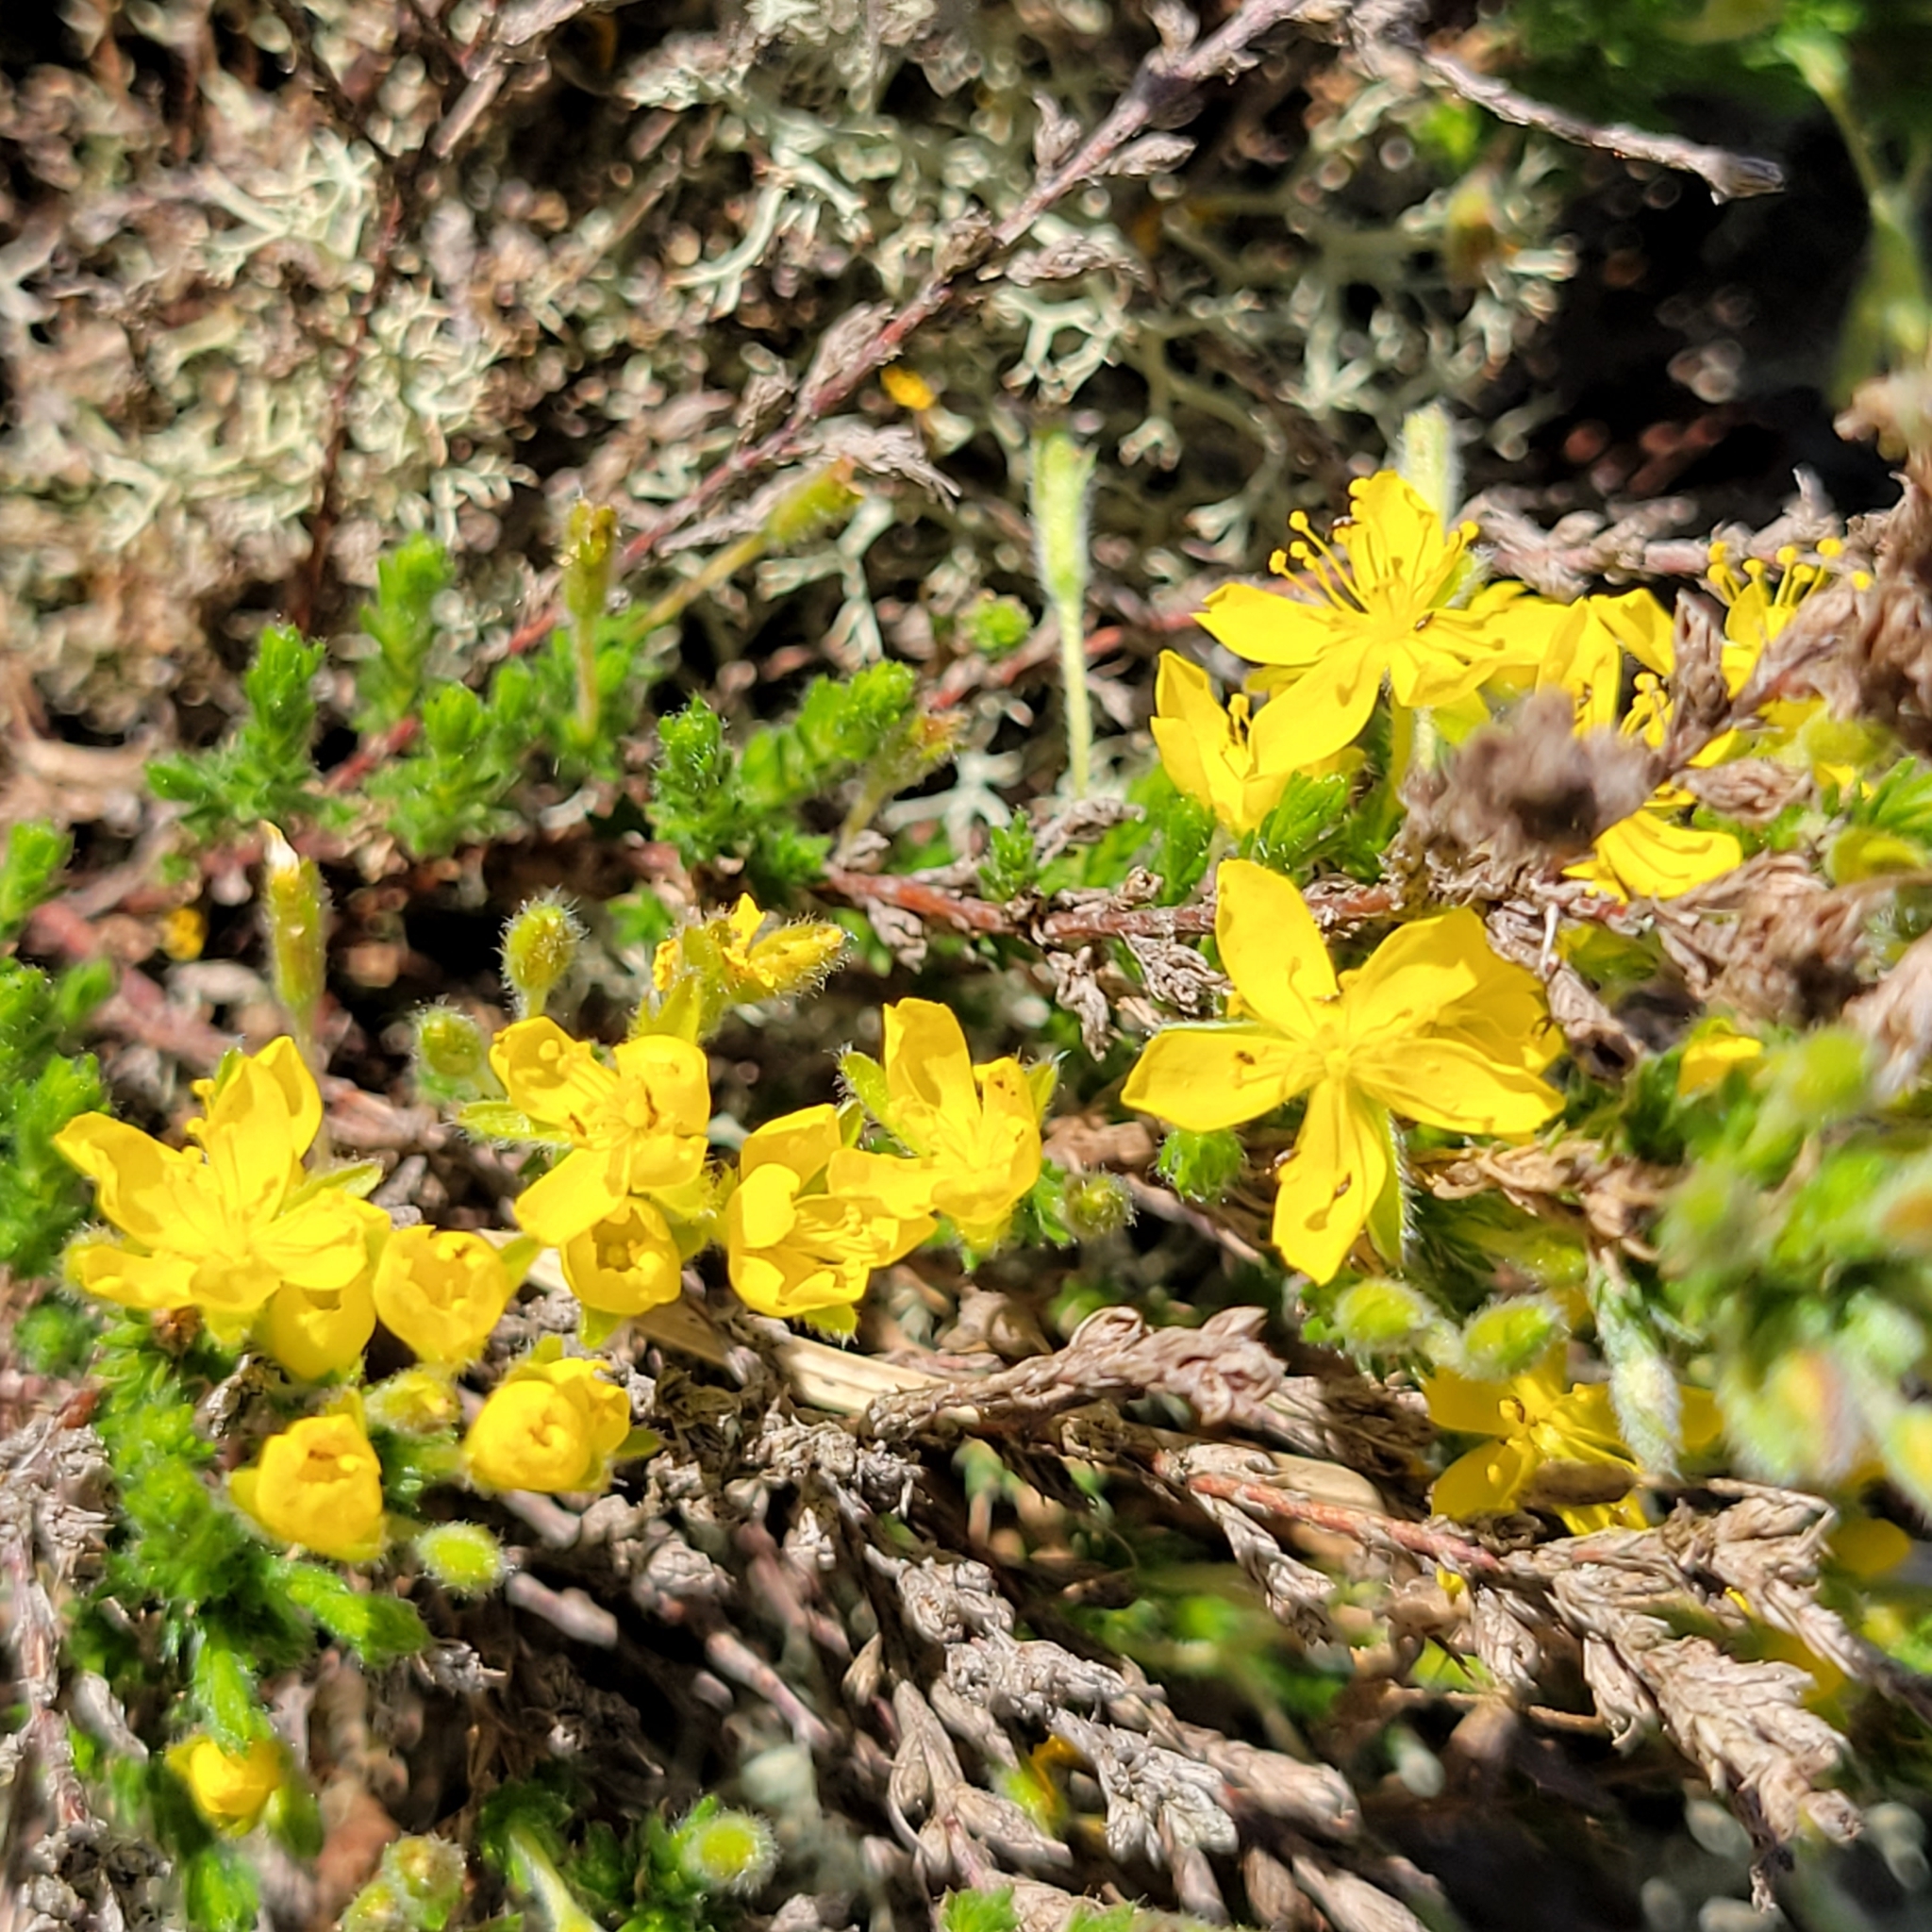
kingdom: Plantae
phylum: Tracheophyta
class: Magnoliopsida
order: Malvales
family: Cistaceae
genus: Hudsonia
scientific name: Hudsonia ericoides
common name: Golden-heather
